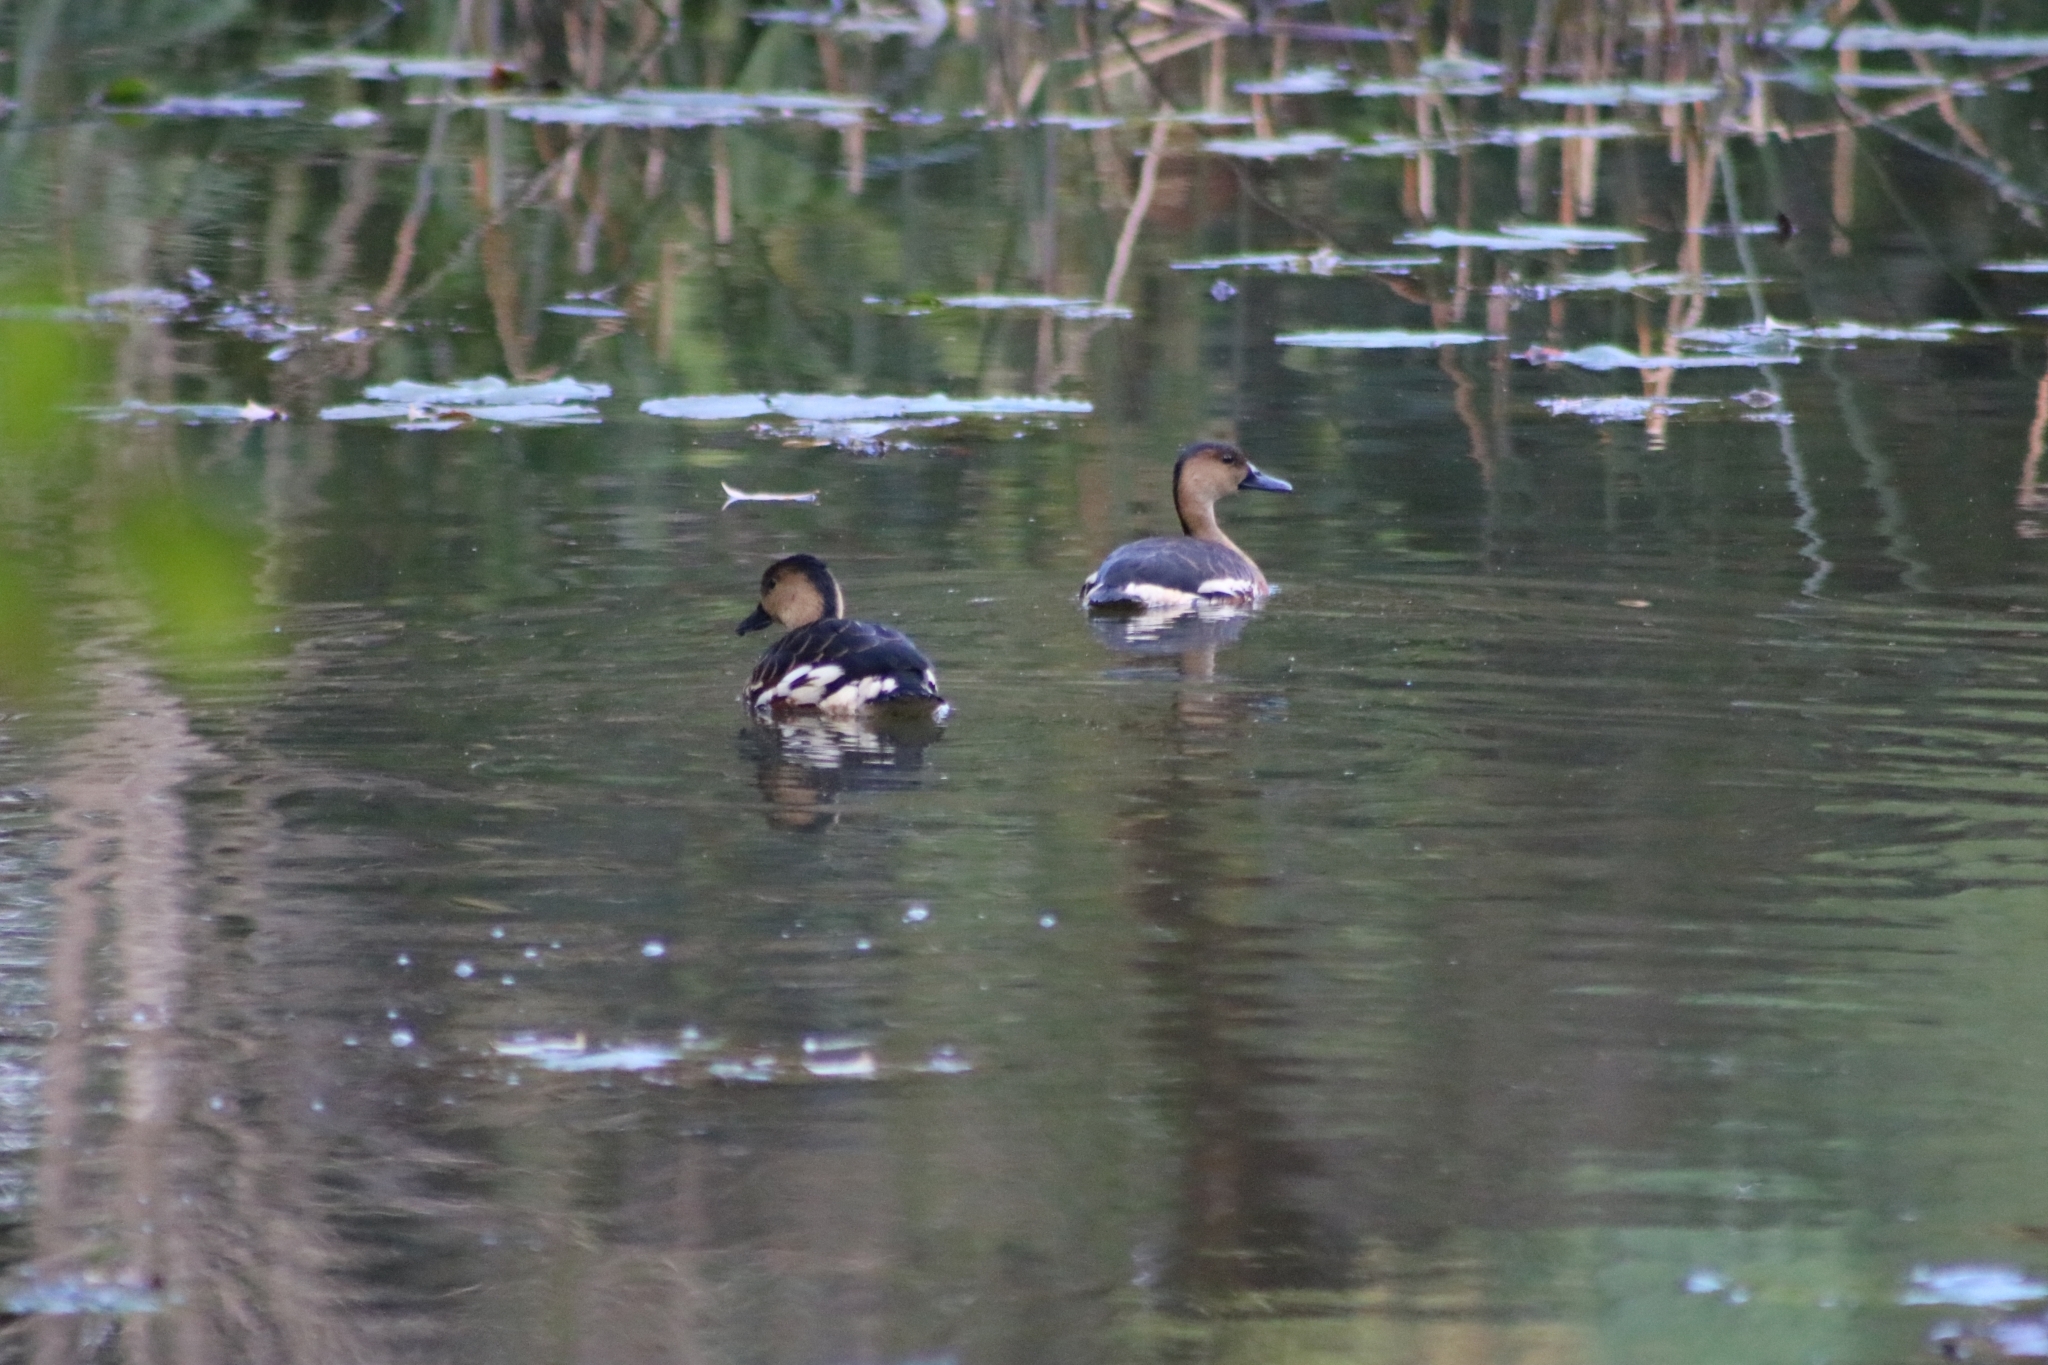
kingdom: Animalia
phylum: Chordata
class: Aves
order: Anseriformes
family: Anatidae
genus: Dendrocygna
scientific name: Dendrocygna arcuata
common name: Wandering whistling-duck
